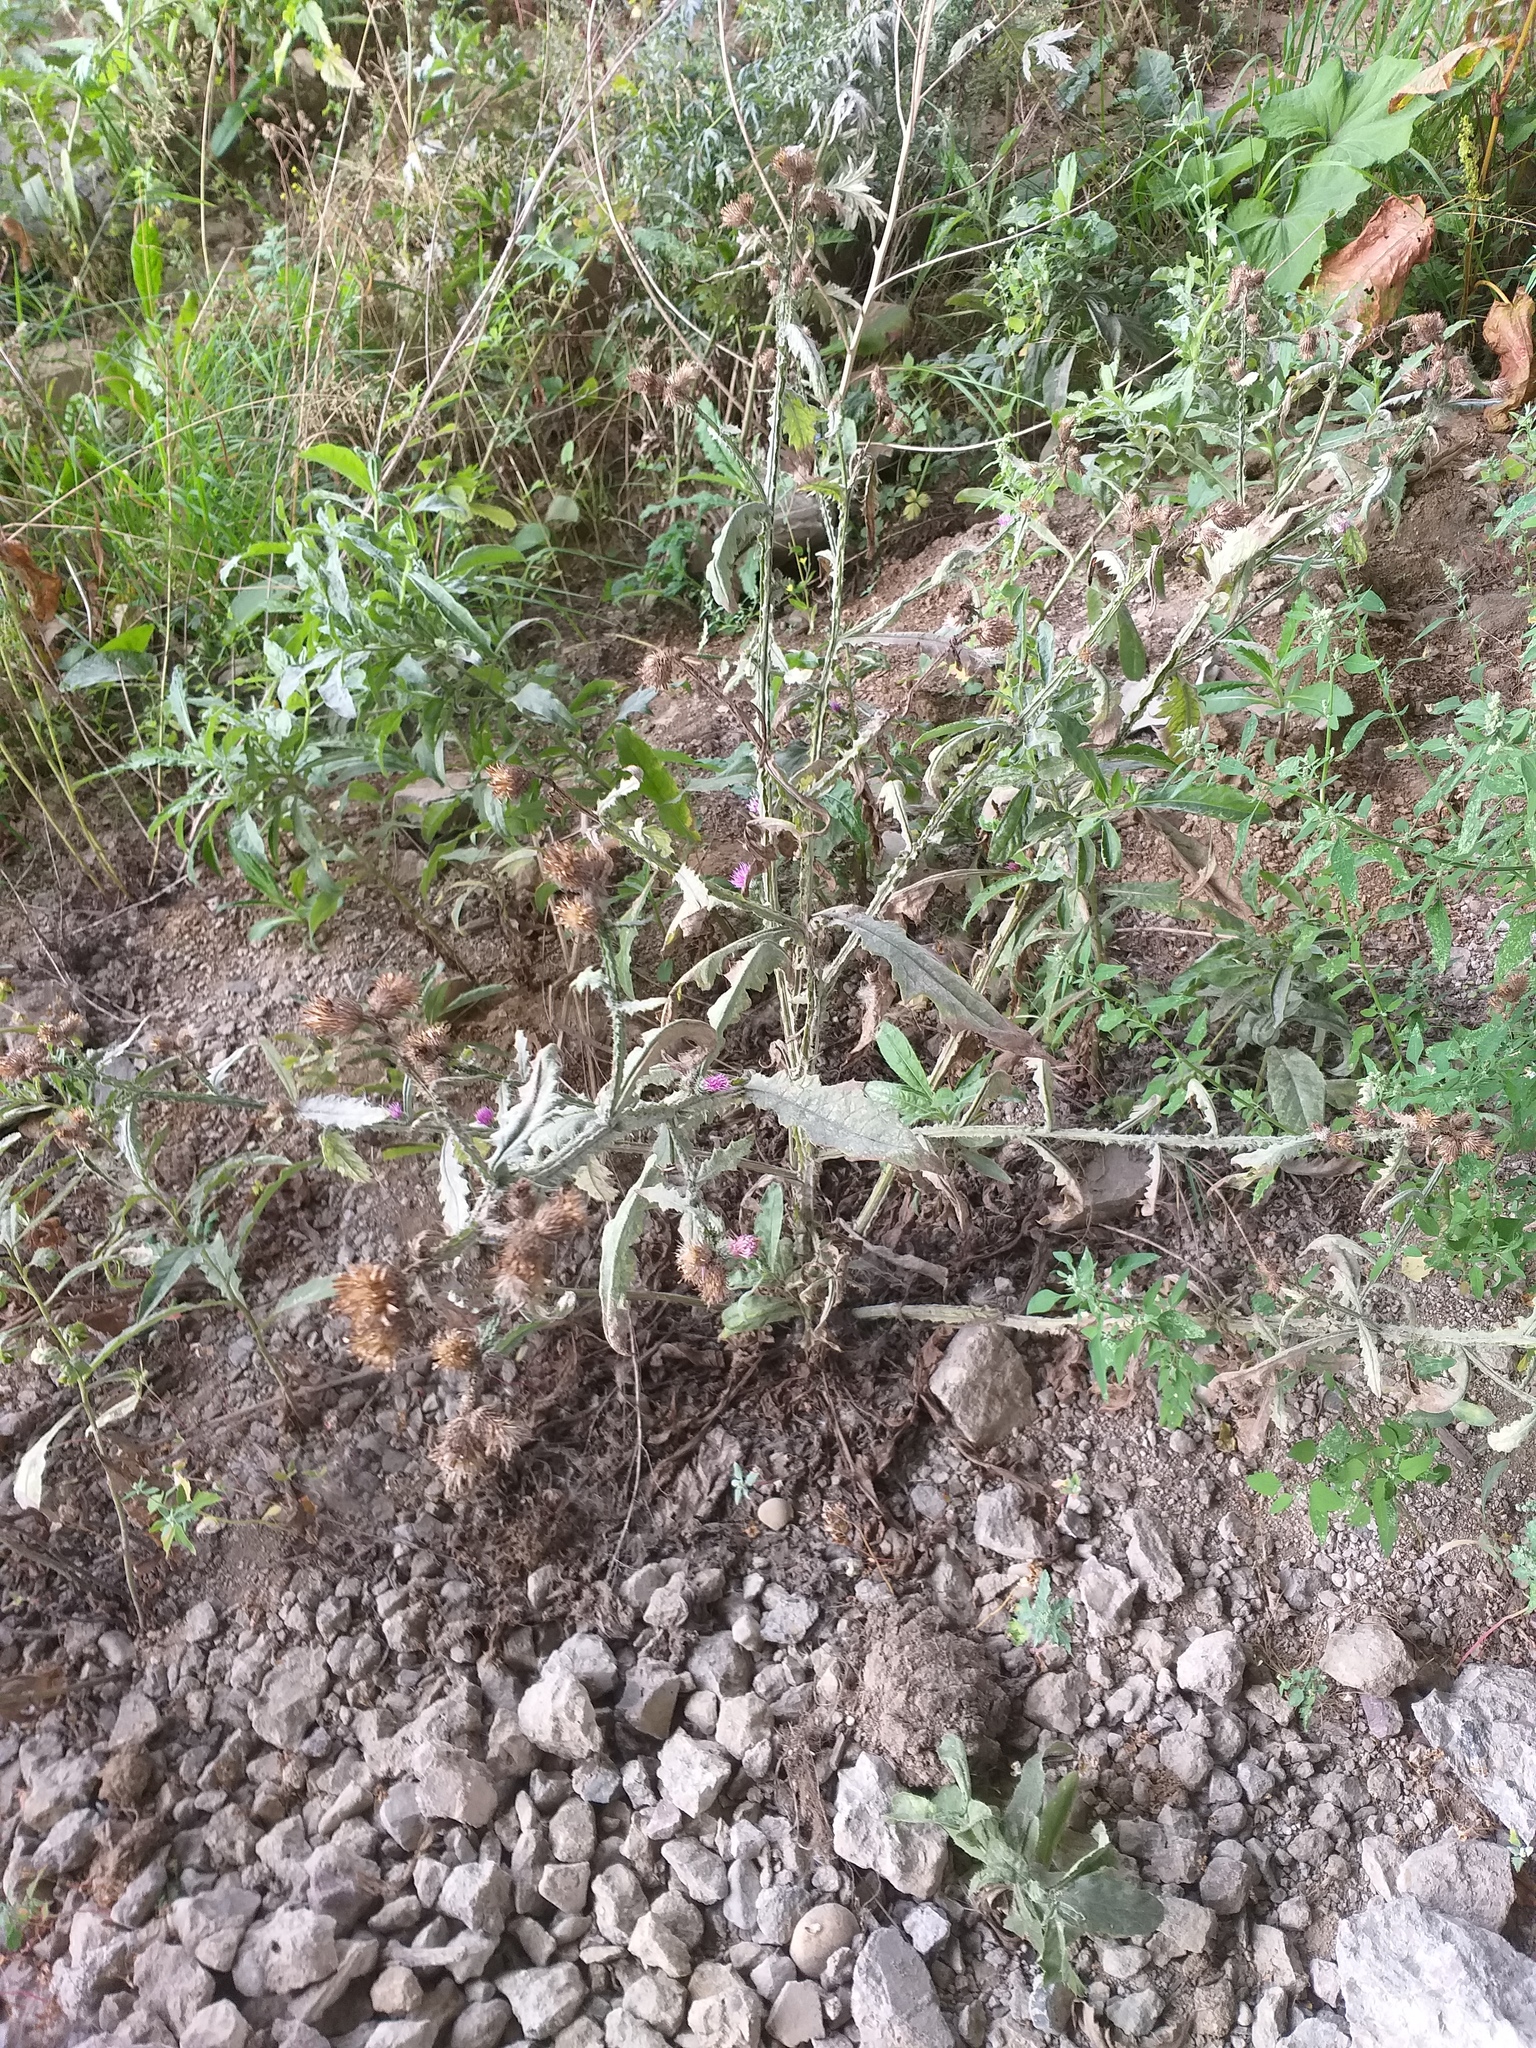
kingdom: Plantae
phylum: Tracheophyta
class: Magnoliopsida
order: Asterales
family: Asteraceae
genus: Carduus
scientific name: Carduus crispus
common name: Welted thistle
